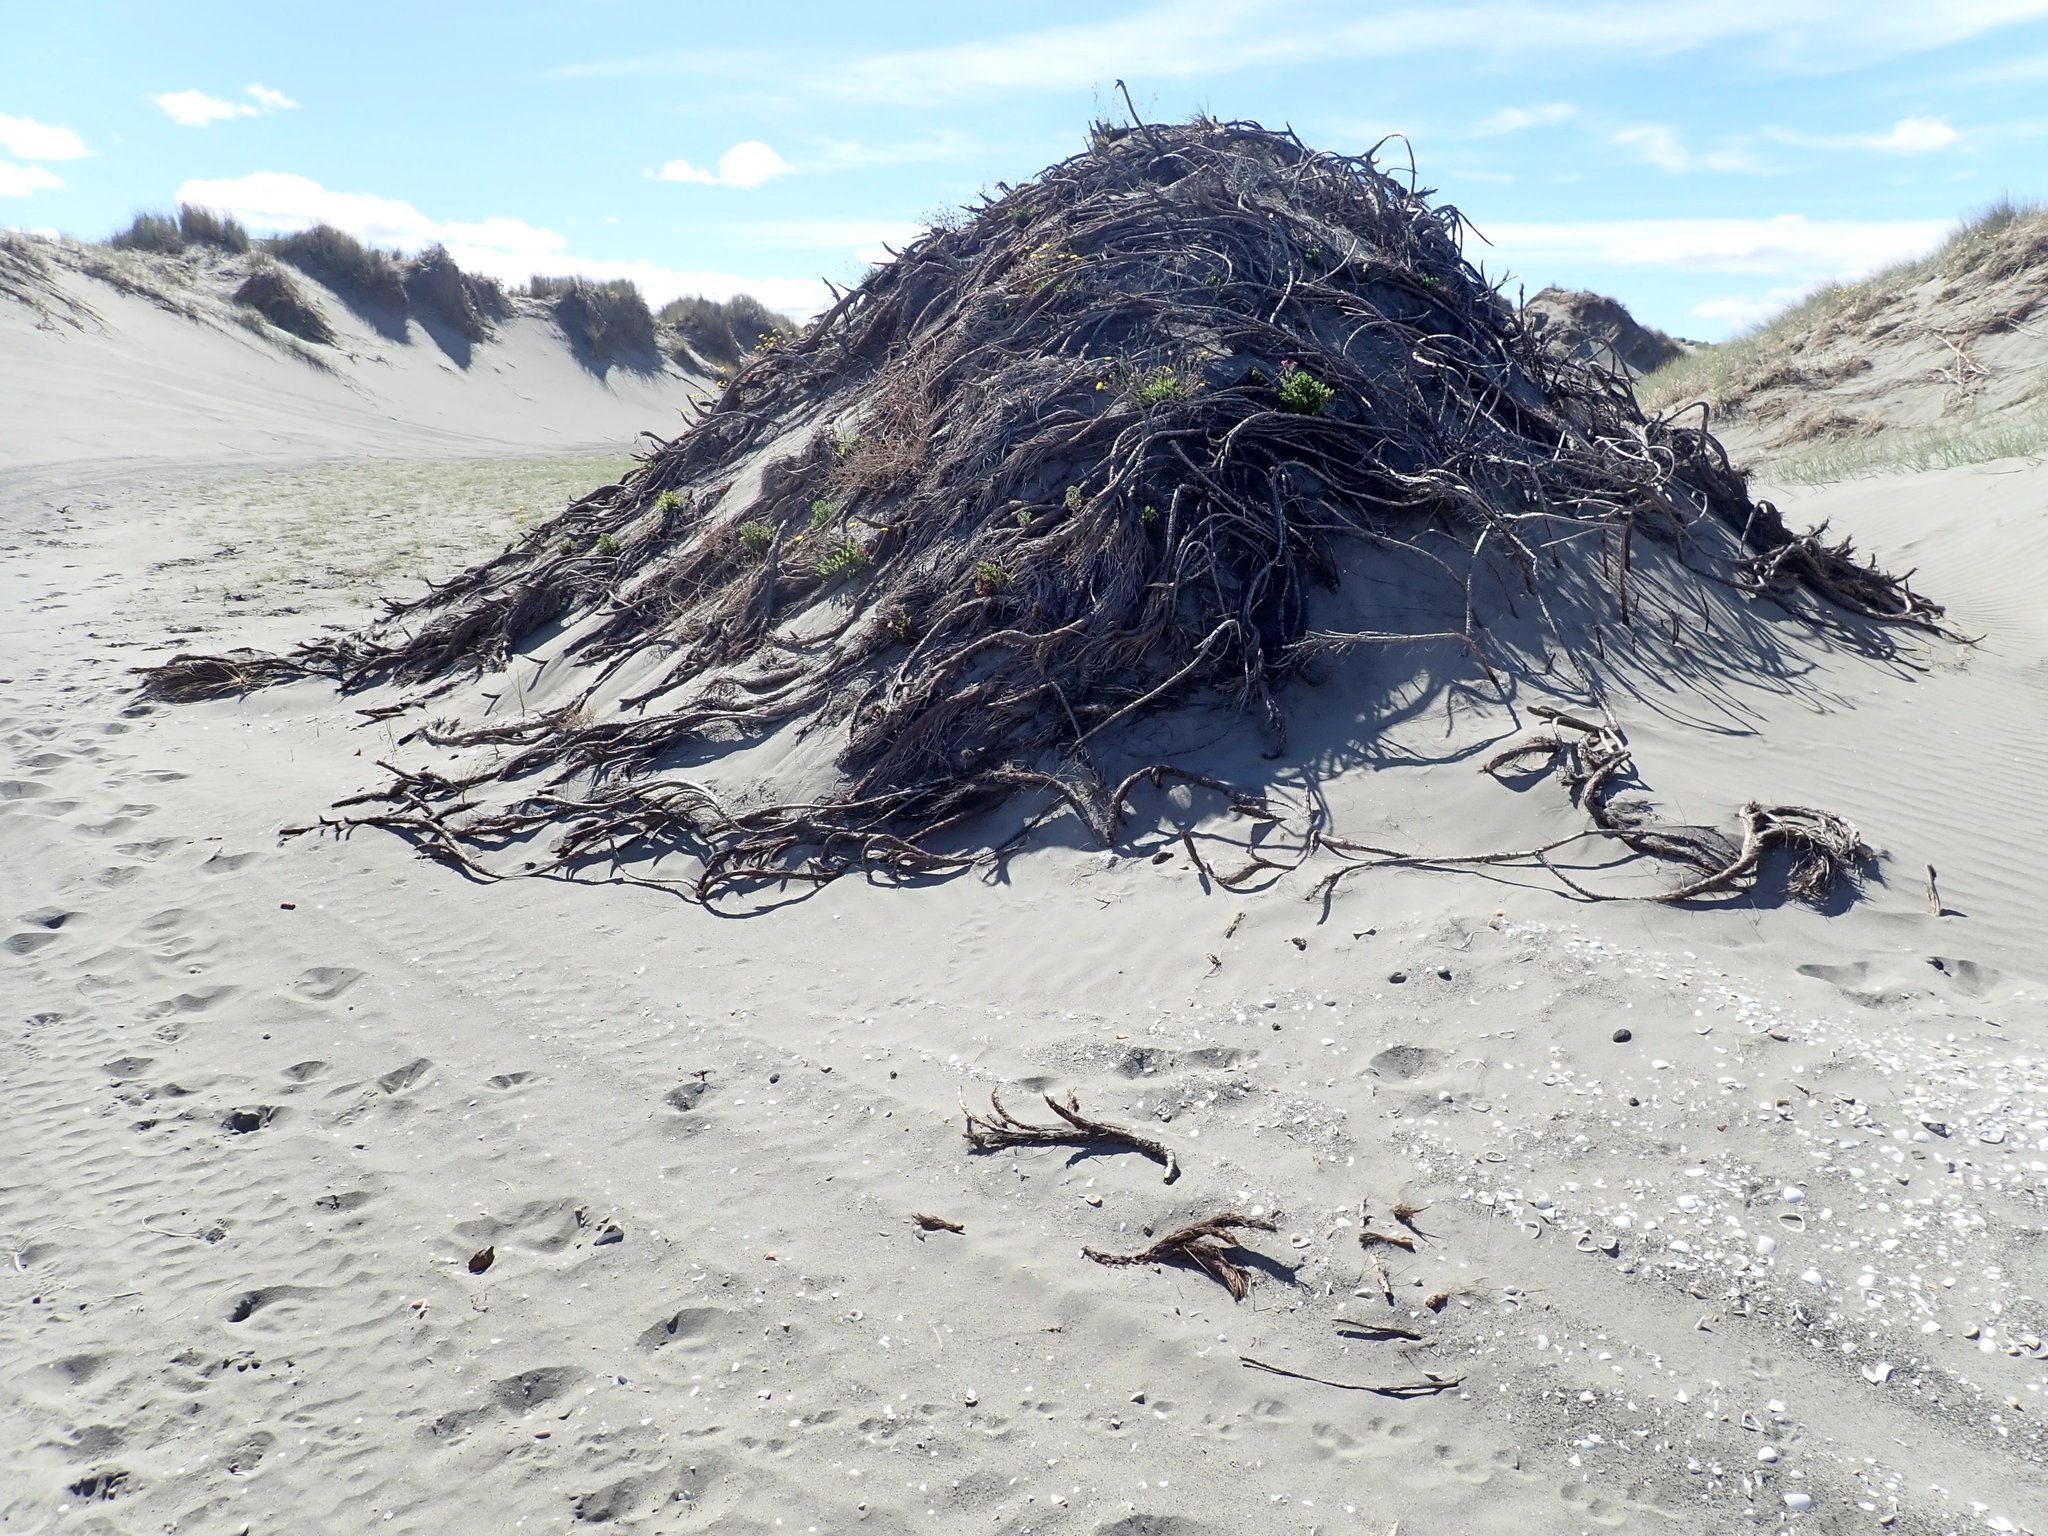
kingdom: Plantae
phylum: Tracheophyta
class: Liliopsida
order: Poales
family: Cyperaceae
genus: Ficinia
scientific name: Ficinia spiralis
